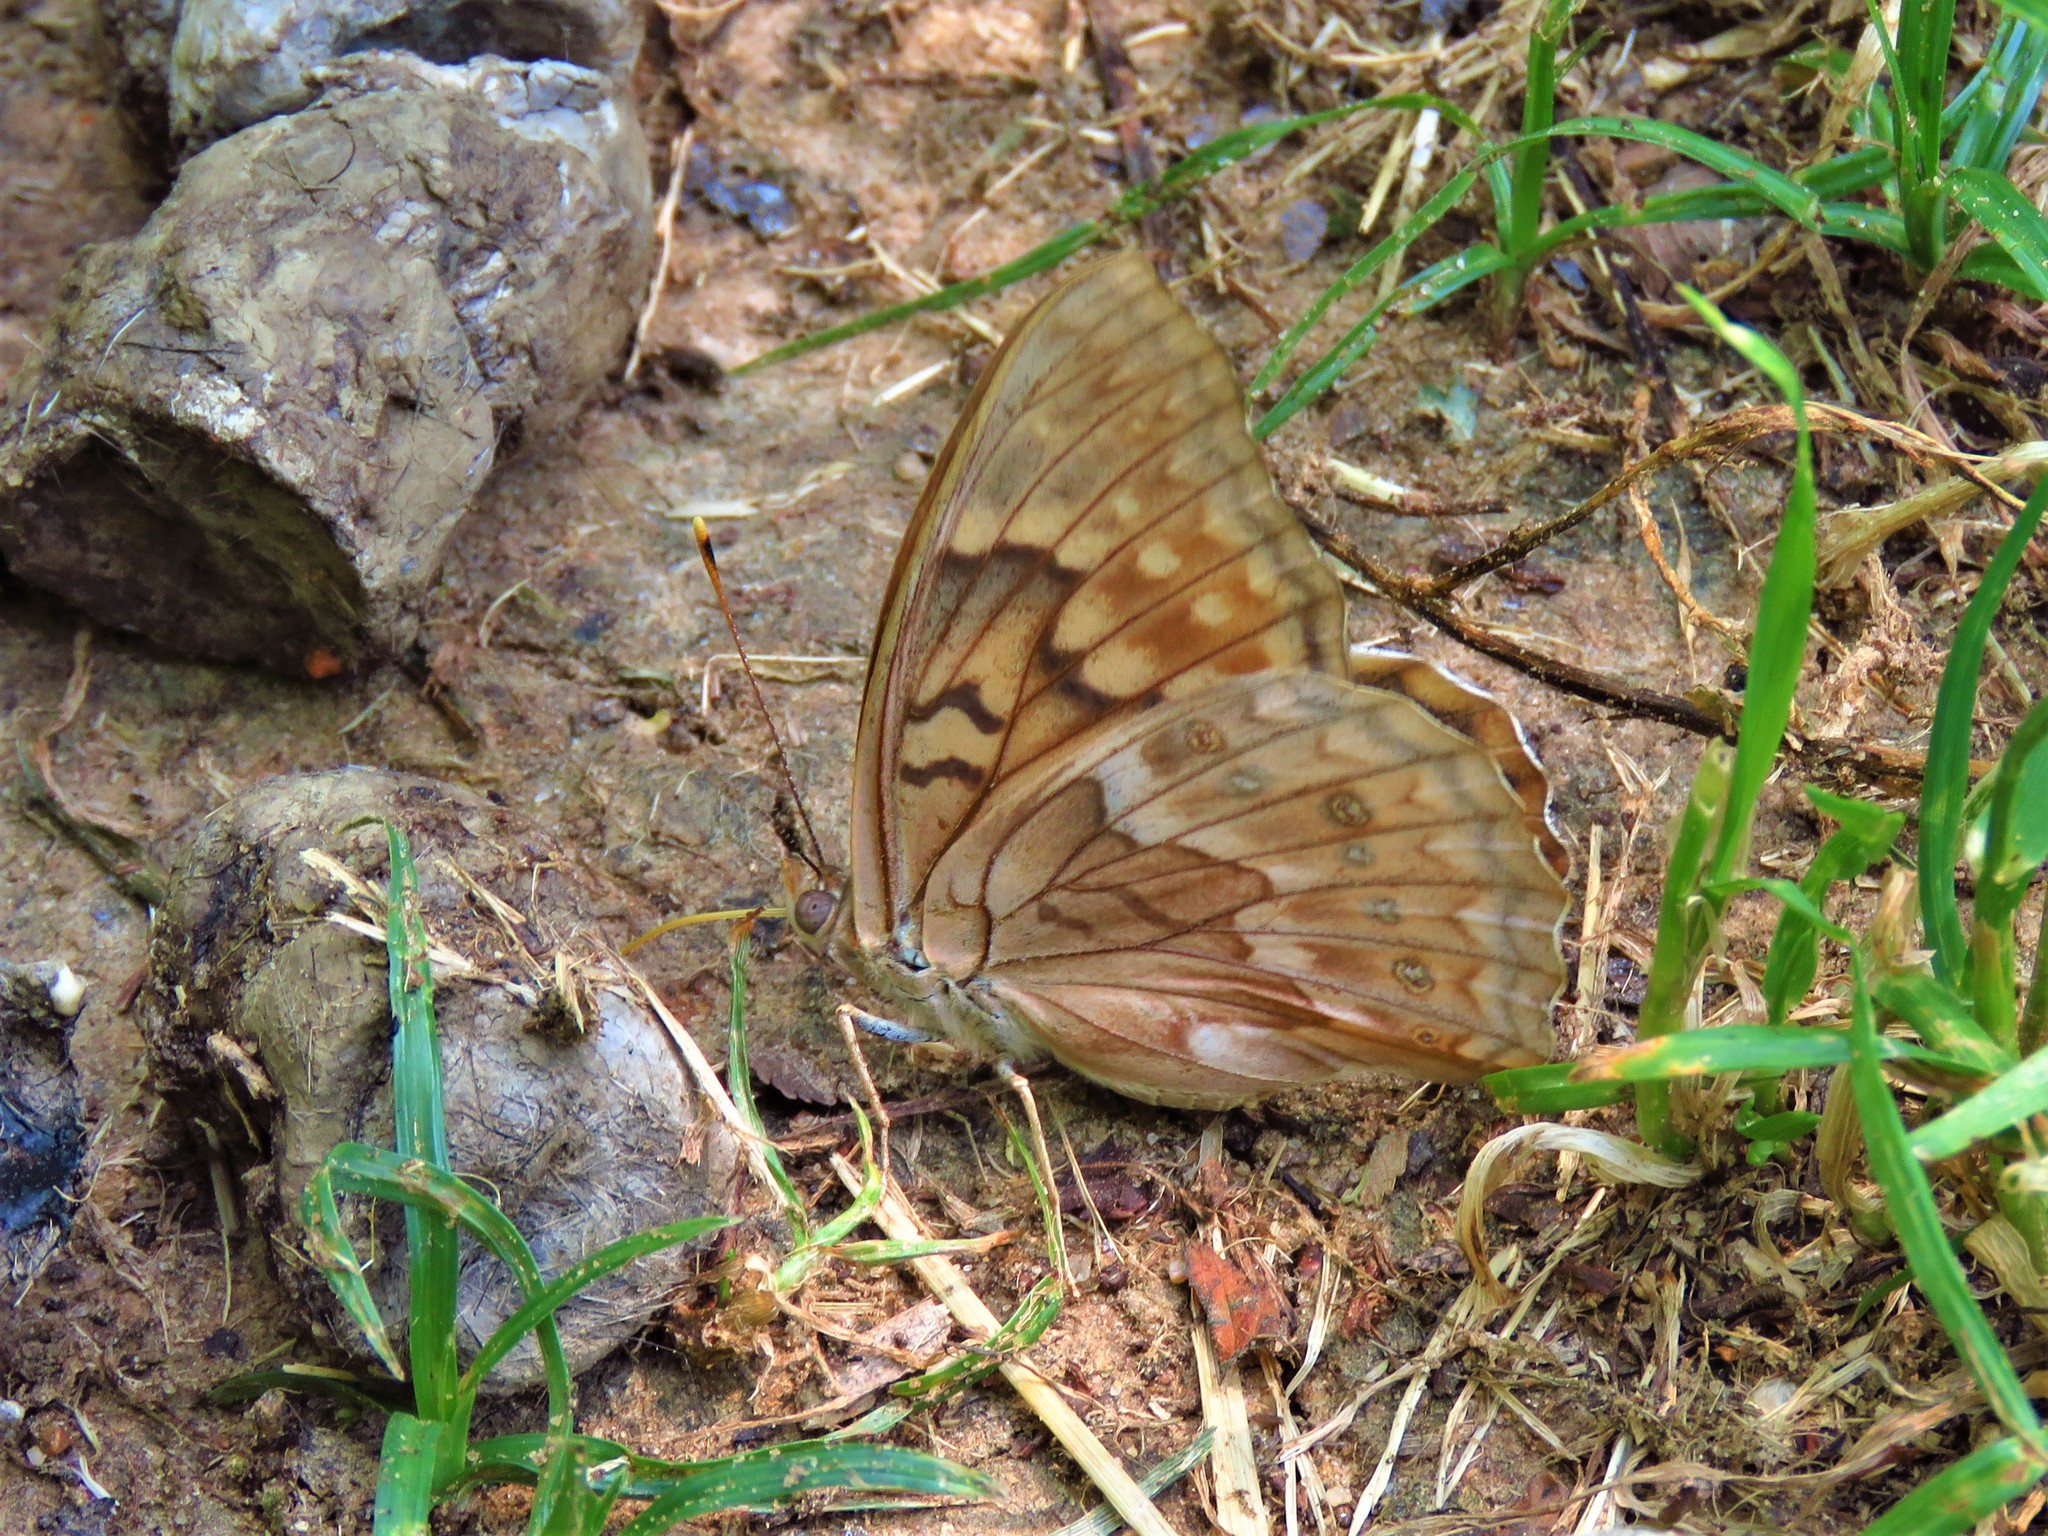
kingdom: Animalia
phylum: Arthropoda
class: Insecta
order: Lepidoptera
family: Nymphalidae
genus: Asterocampa
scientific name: Asterocampa clyton
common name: Tawny emperor
